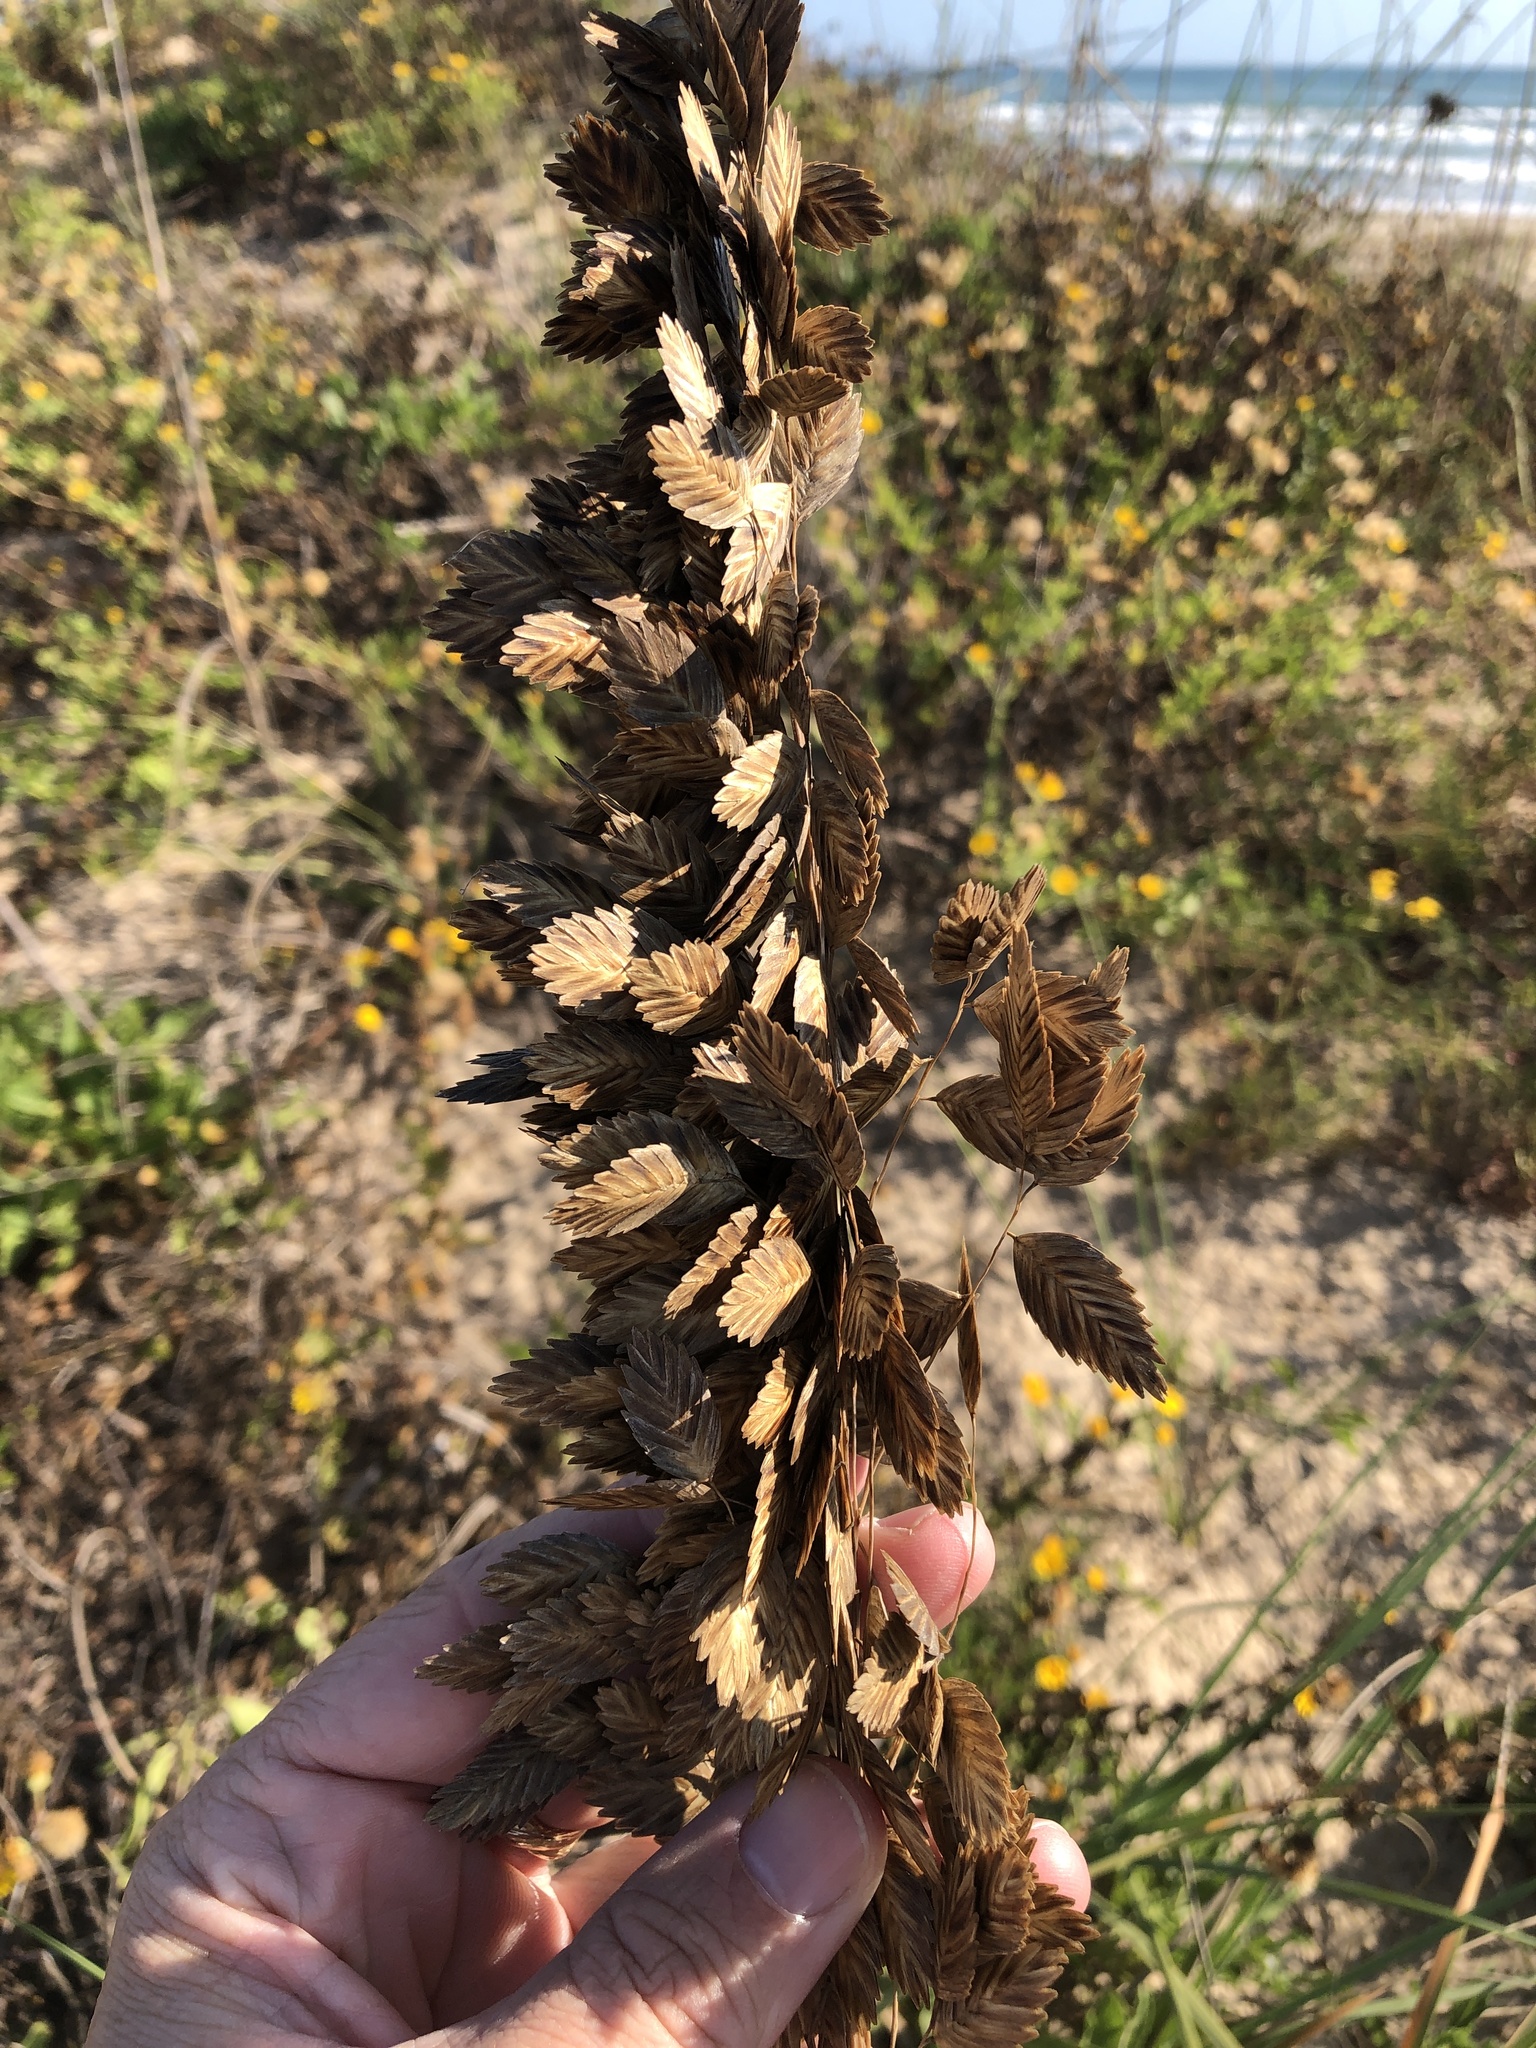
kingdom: Plantae
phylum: Tracheophyta
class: Liliopsida
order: Poales
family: Poaceae
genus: Uniola
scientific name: Uniola paniculata
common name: Seaside-oats
